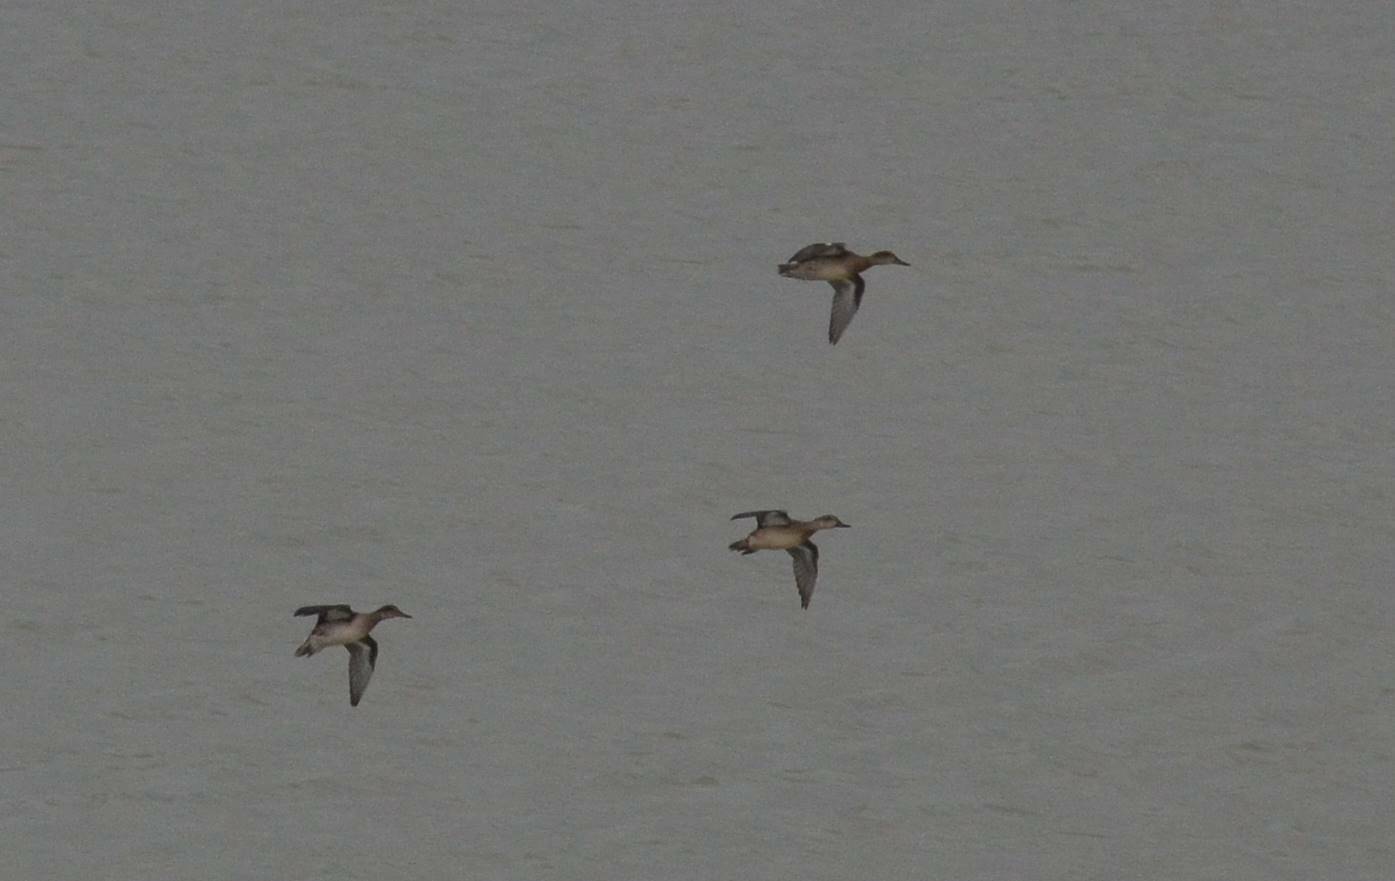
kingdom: Animalia
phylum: Chordata
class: Aves
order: Anseriformes
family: Anatidae
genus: Anas
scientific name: Anas crecca
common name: Eurasian teal
